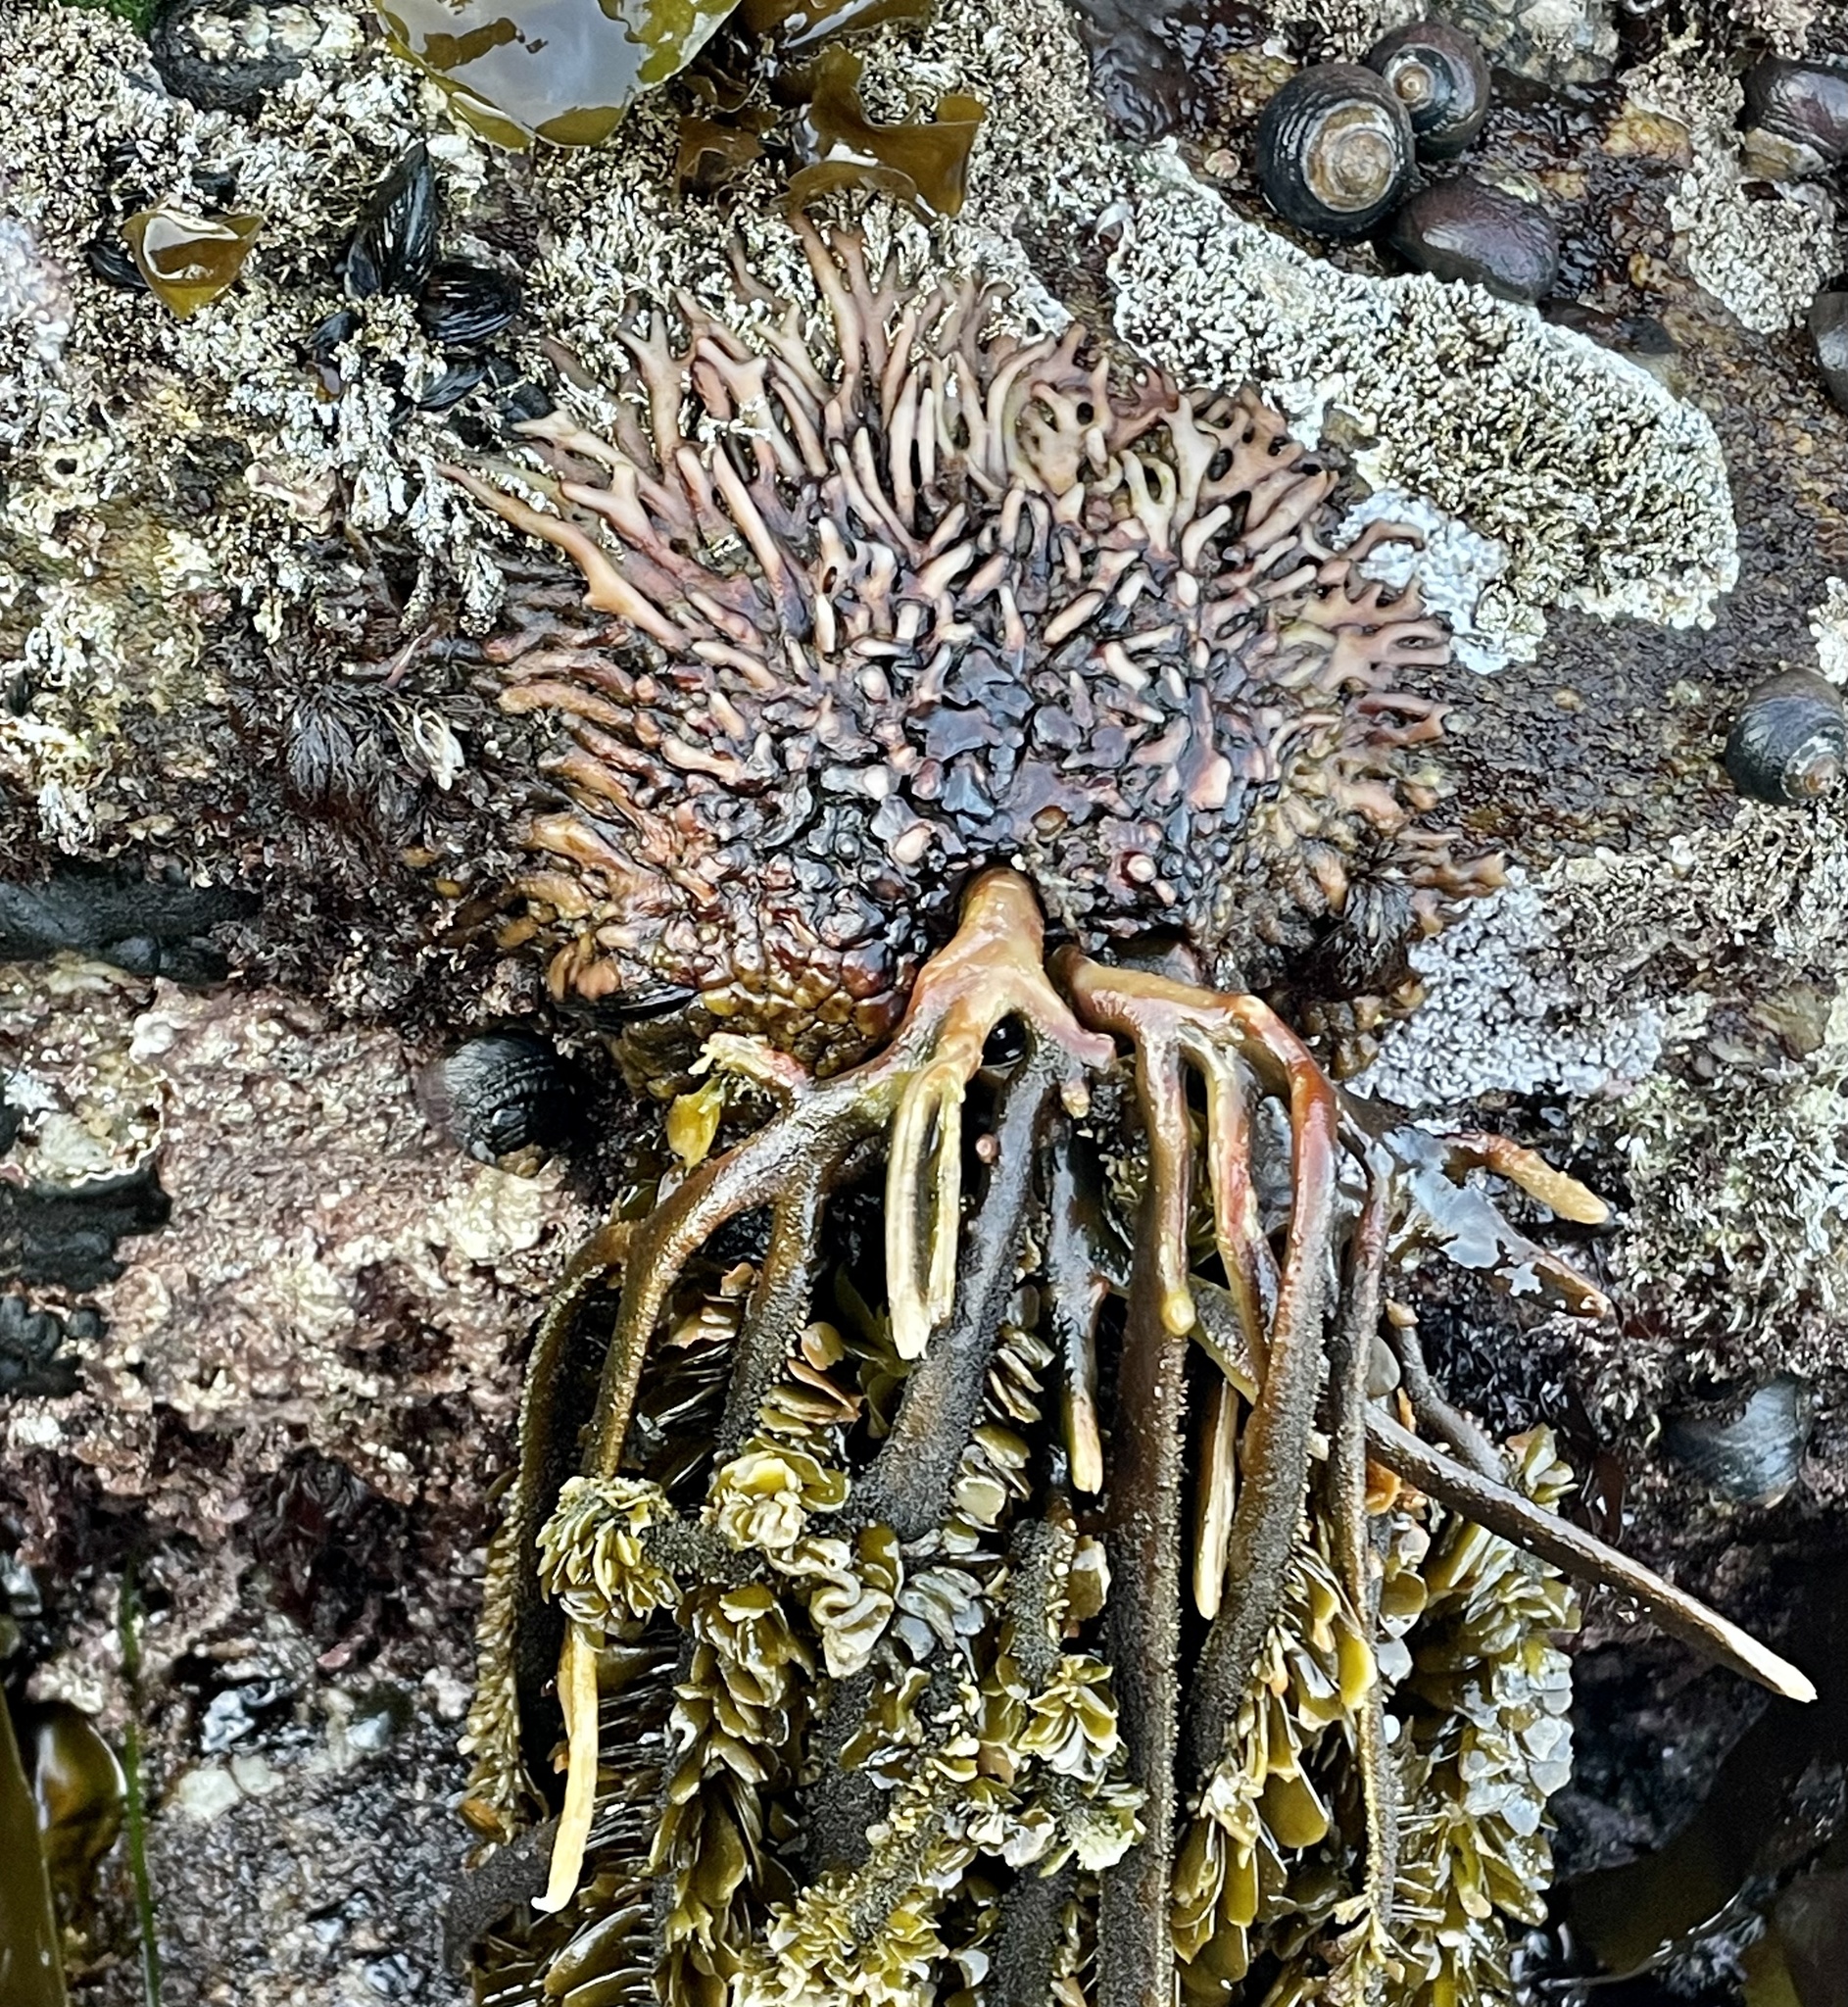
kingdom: Chromista
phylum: Ochrophyta
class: Phaeophyceae
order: Laminariales
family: Lessoniaceae
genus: Egregia
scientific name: Egregia menziesii
